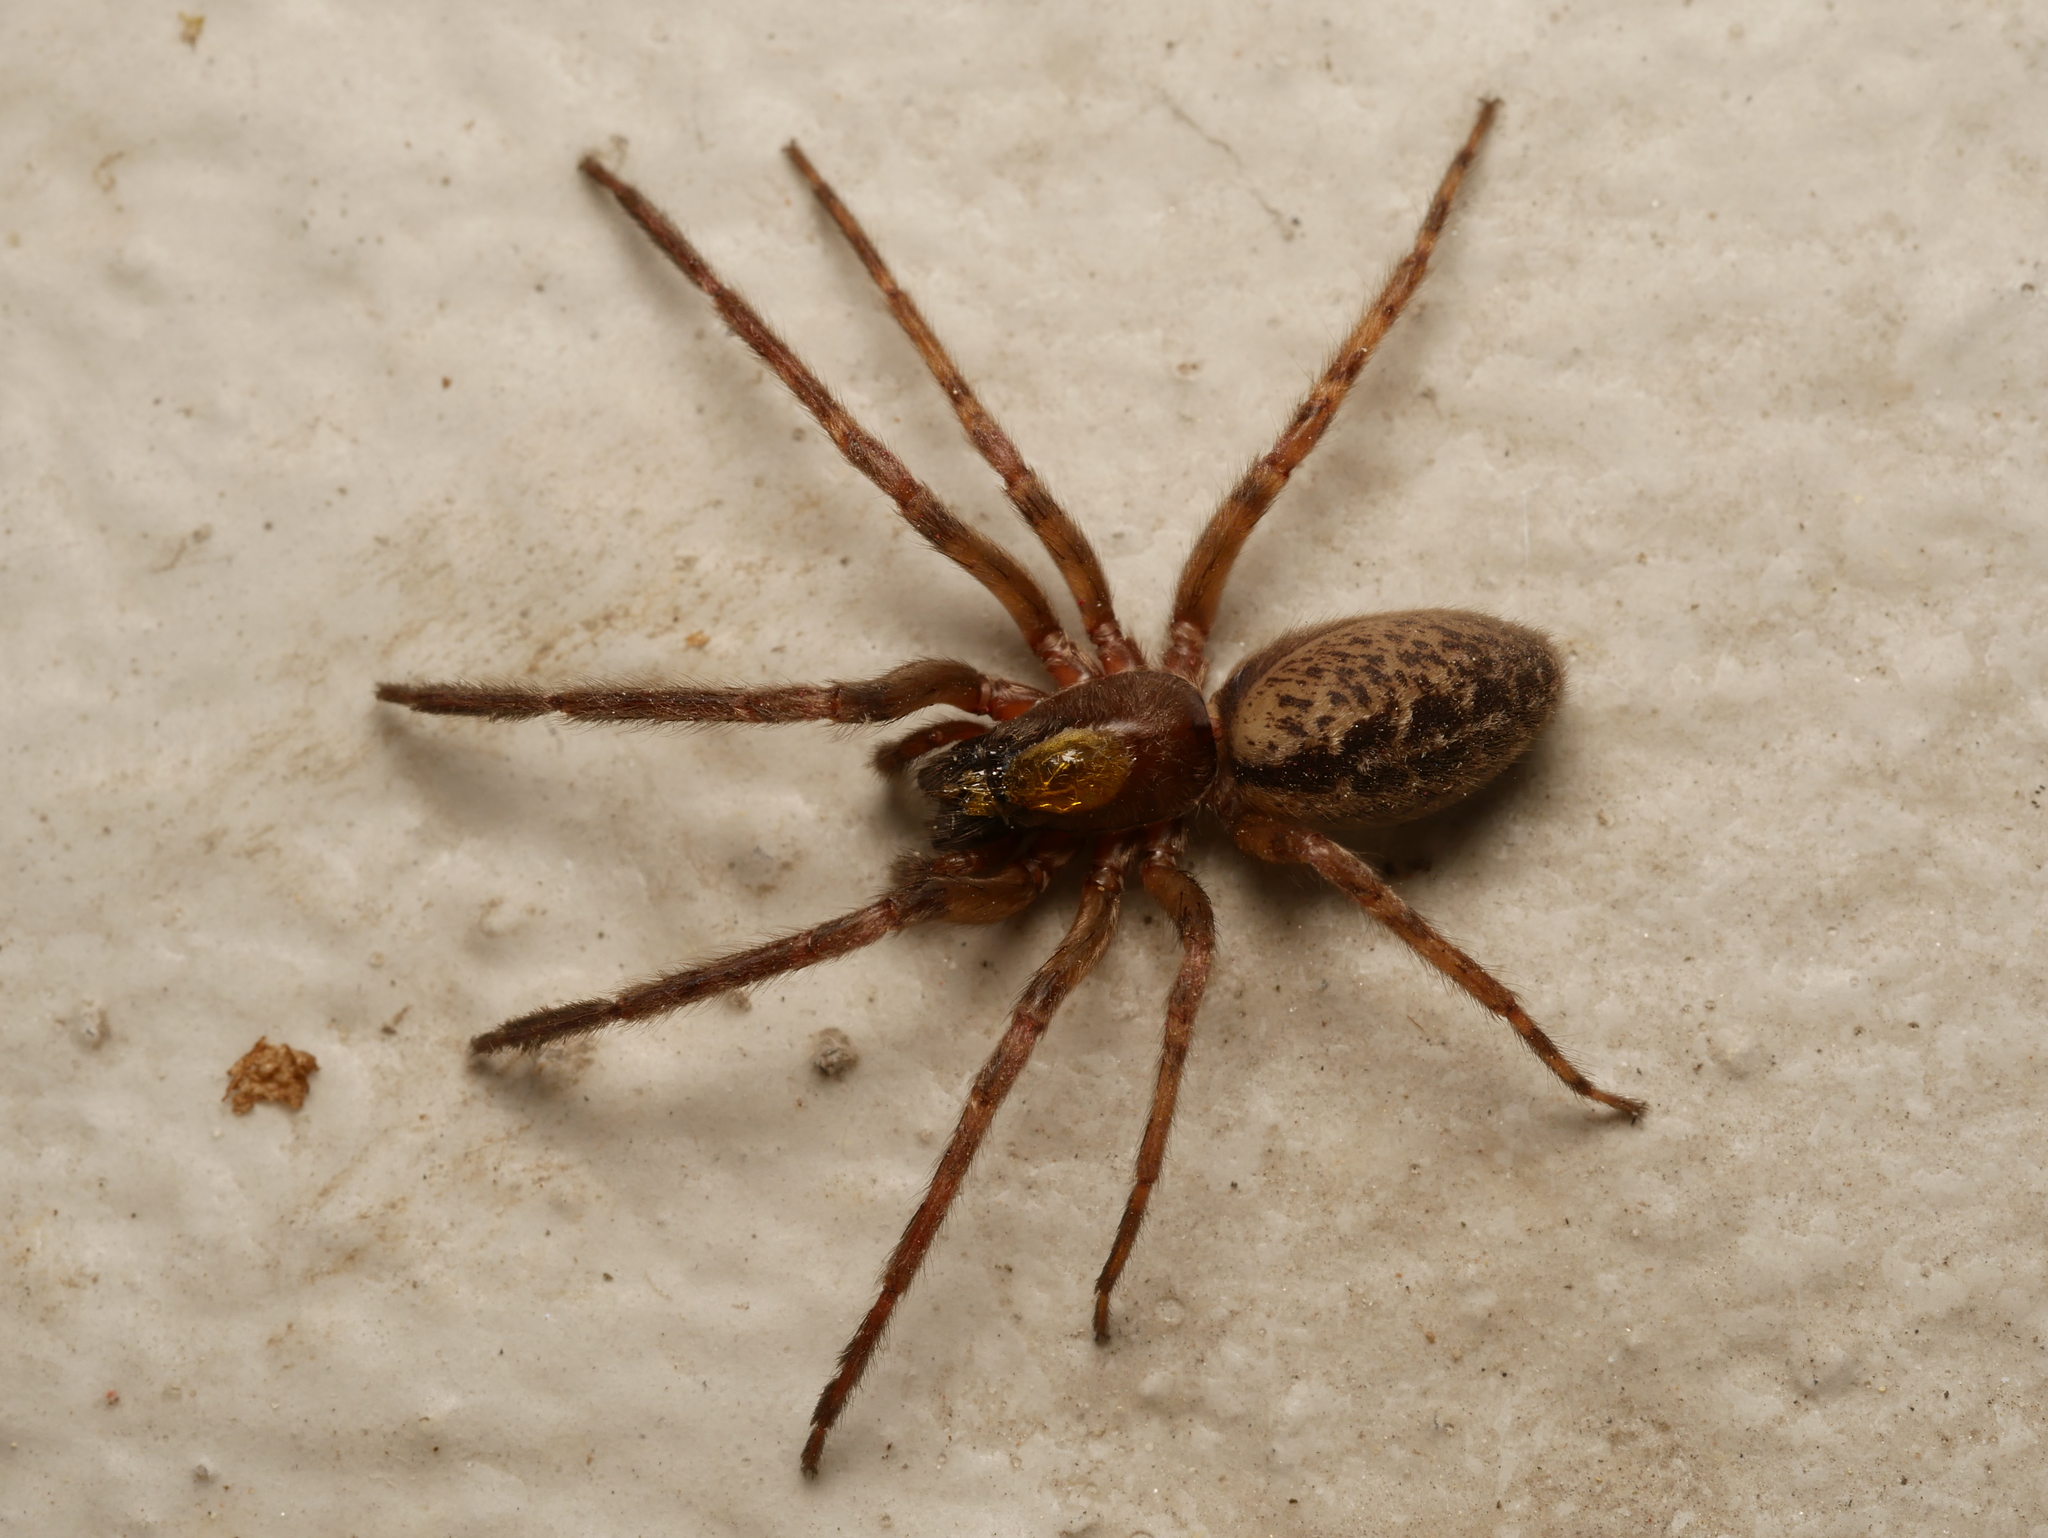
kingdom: Animalia
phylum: Arthropoda
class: Arachnida
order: Araneae
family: Segestriidae
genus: Segestria
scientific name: Segestria bavarica
